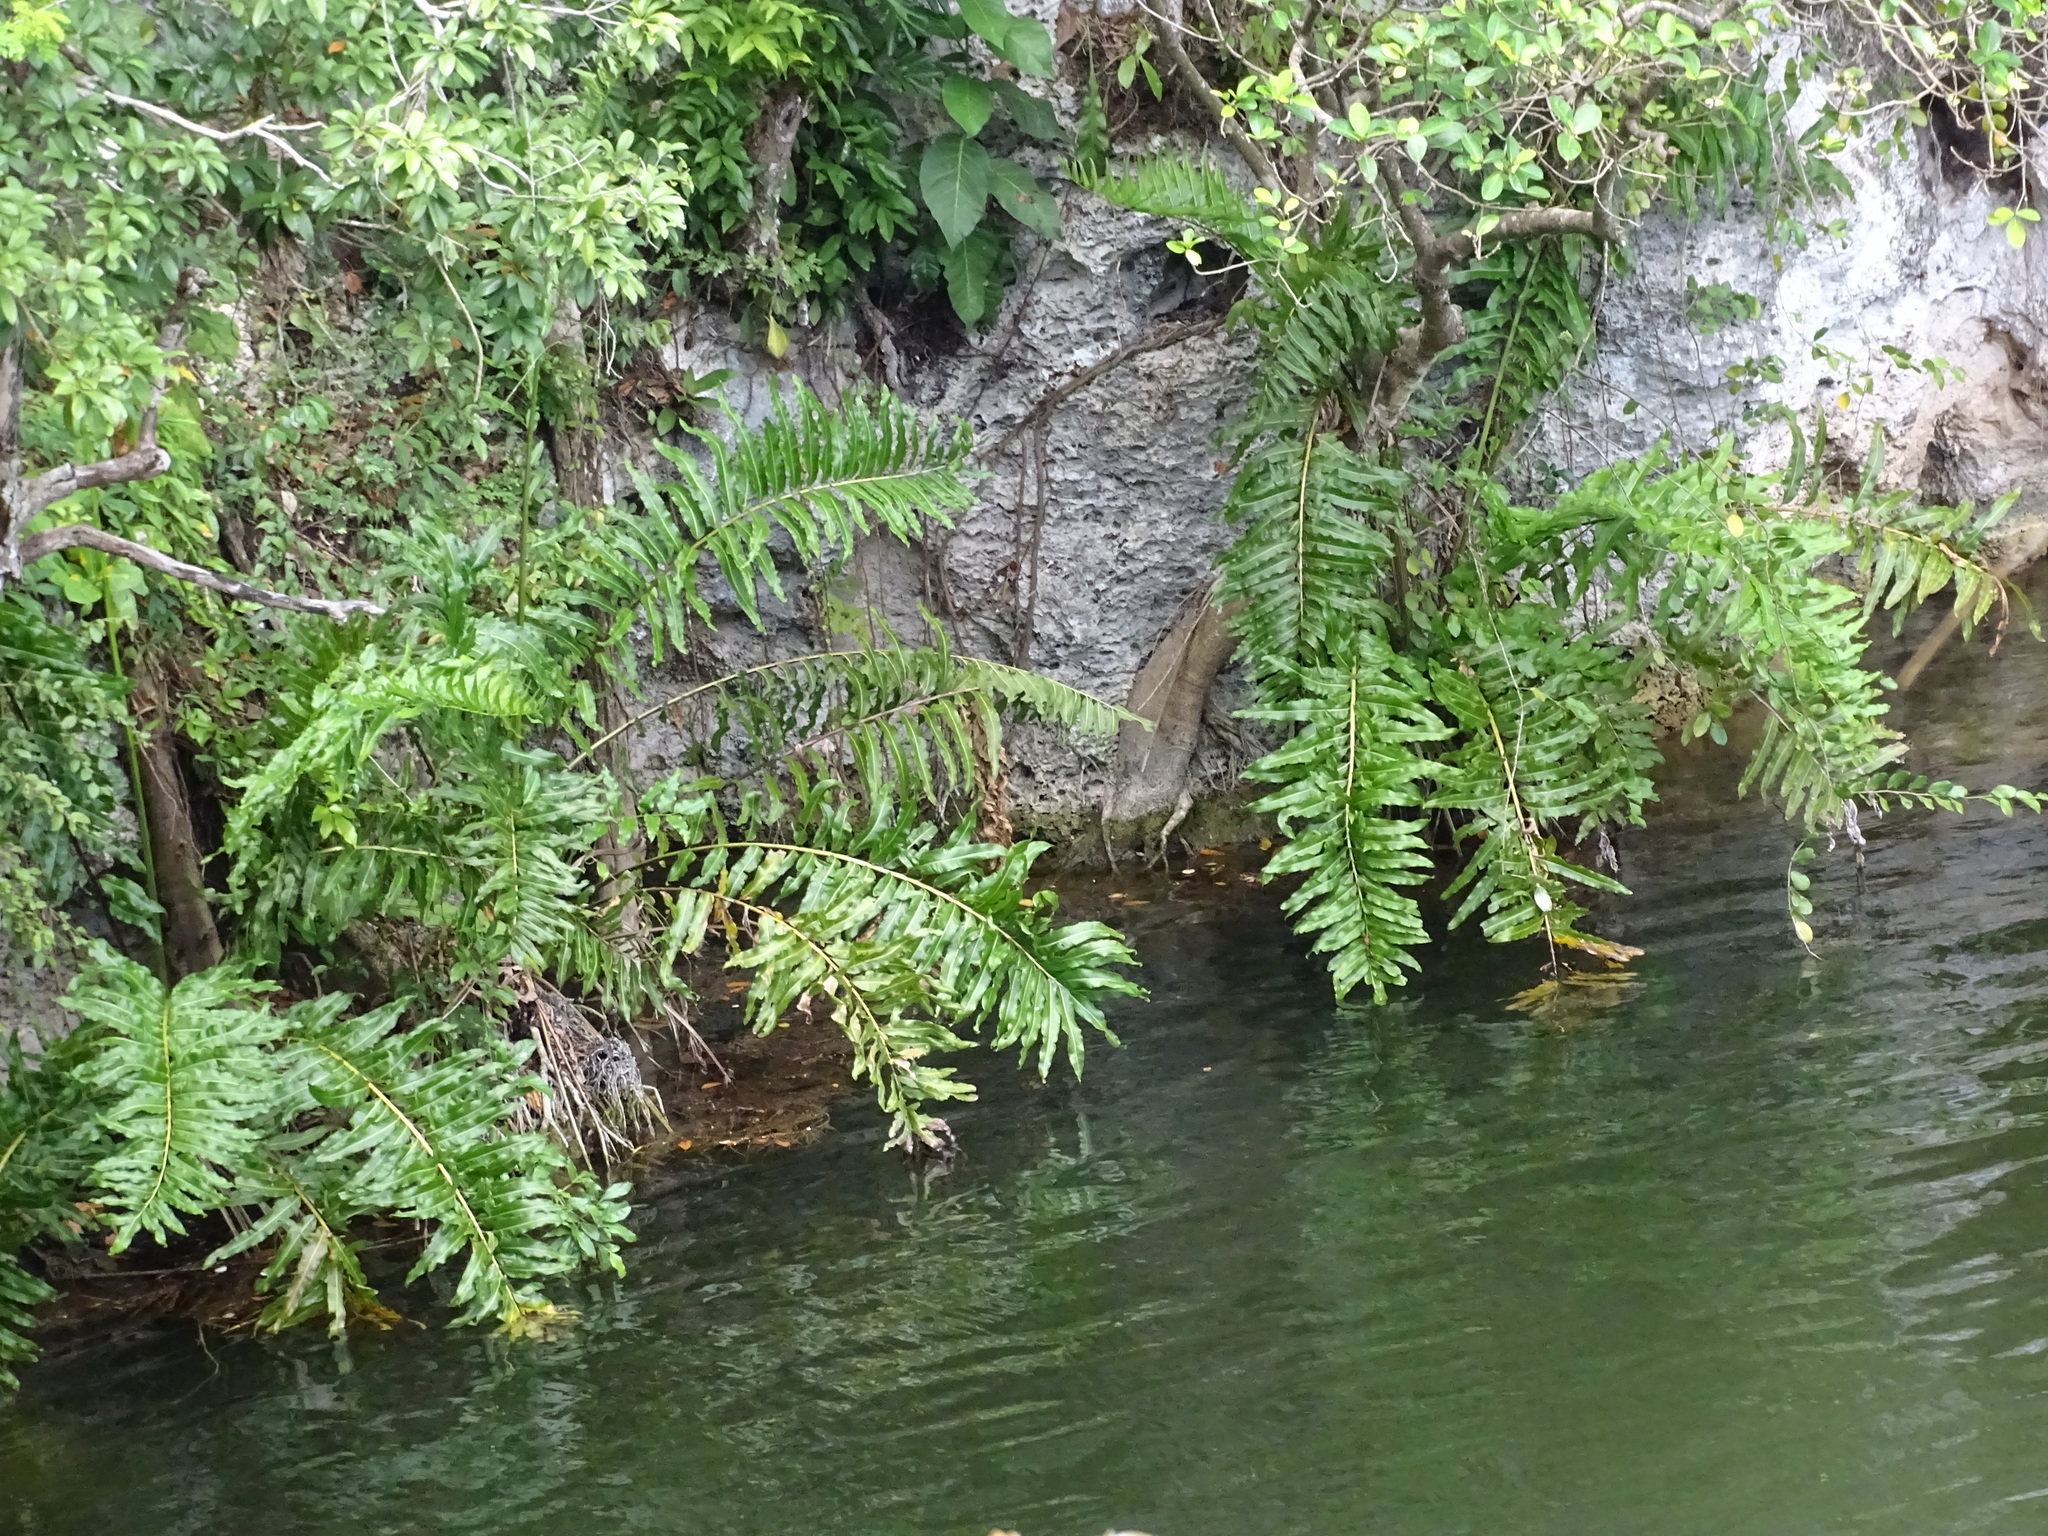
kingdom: Plantae
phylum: Tracheophyta
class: Polypodiopsida
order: Polypodiales
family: Pteridaceae
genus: Acrostichum
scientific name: Acrostichum danaeifolium
